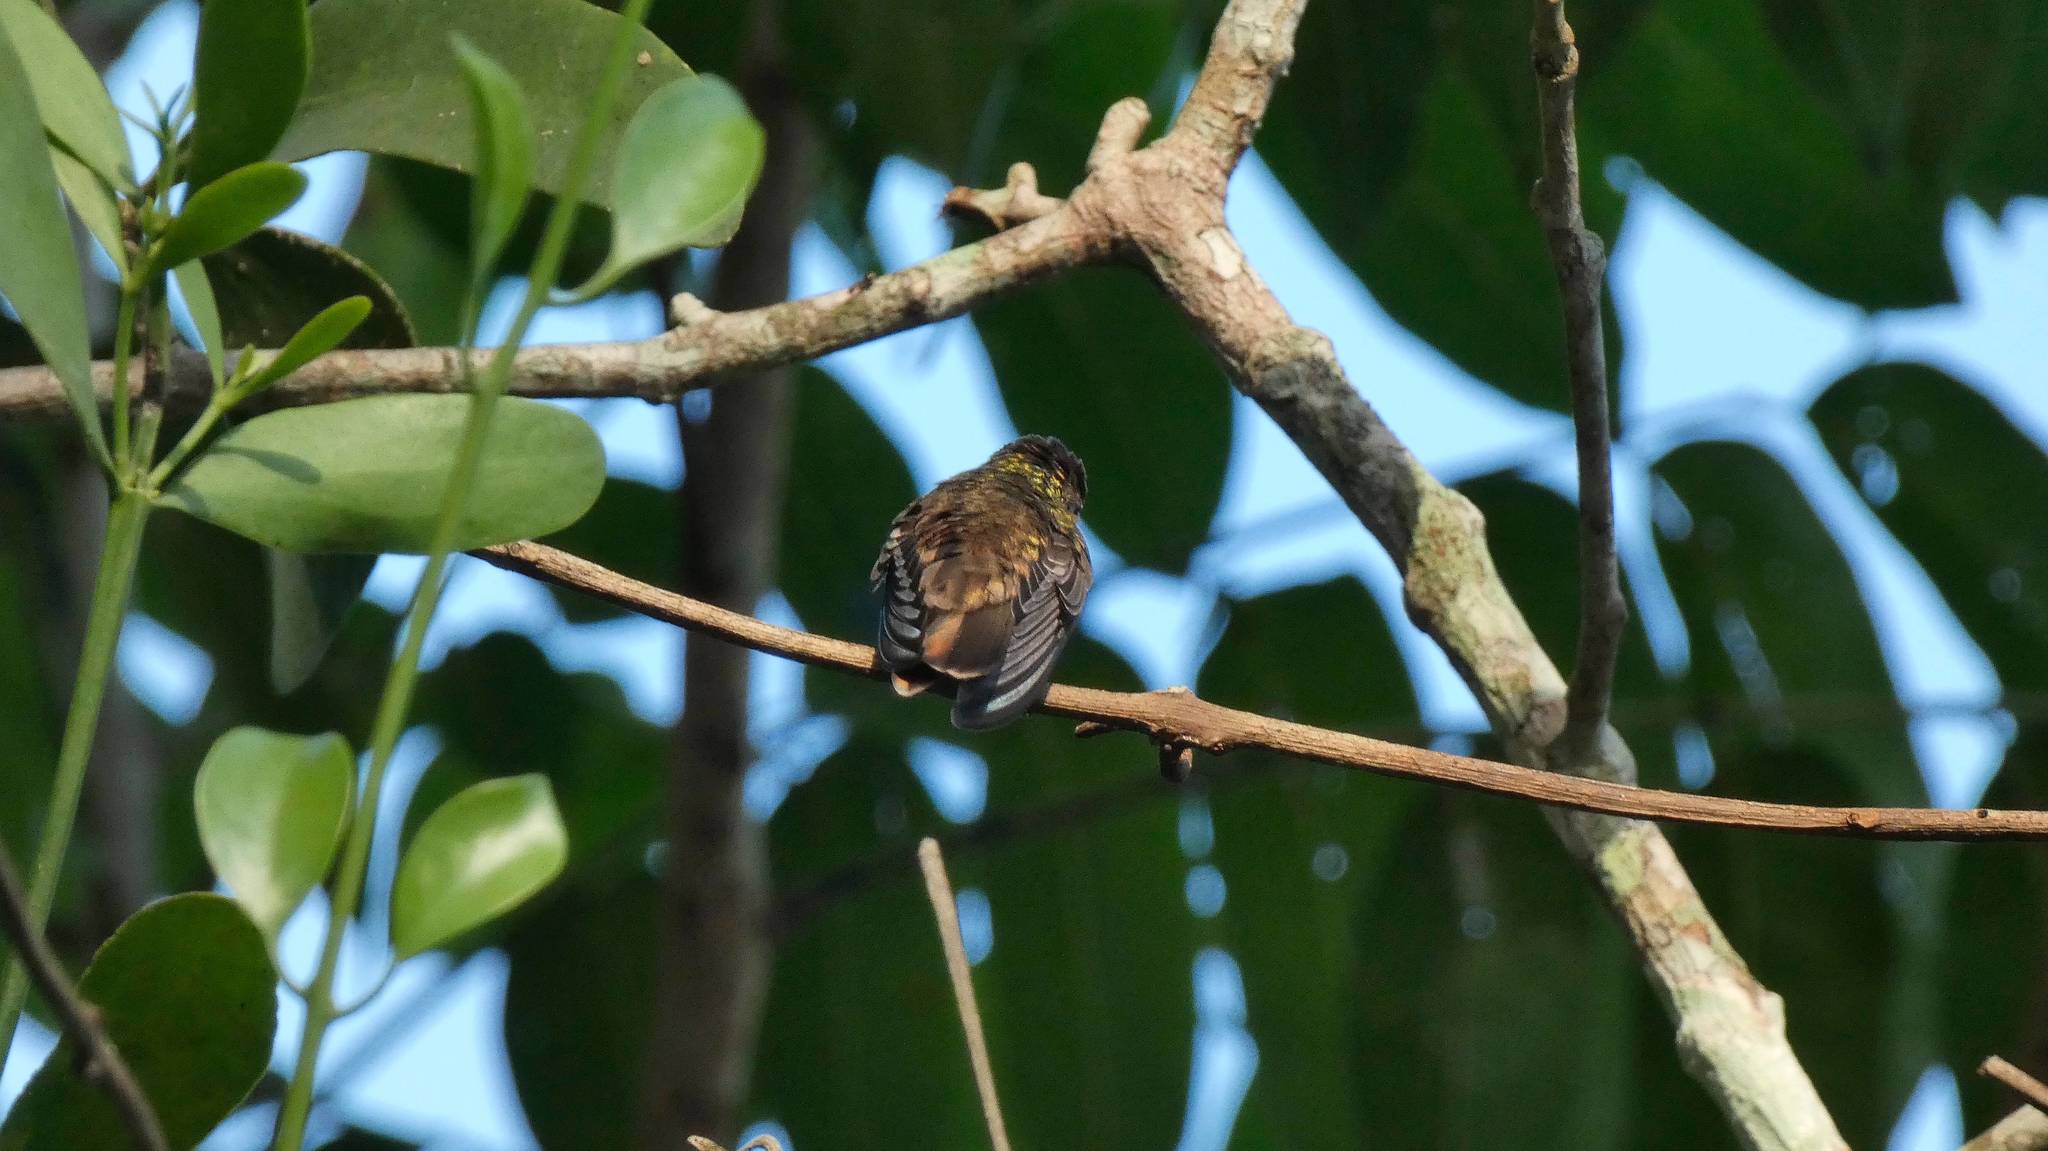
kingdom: Animalia
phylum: Chordata
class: Aves
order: Apodiformes
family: Trochilidae
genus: Chlorestes
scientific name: Chlorestes candida
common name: White-bellied emerald
